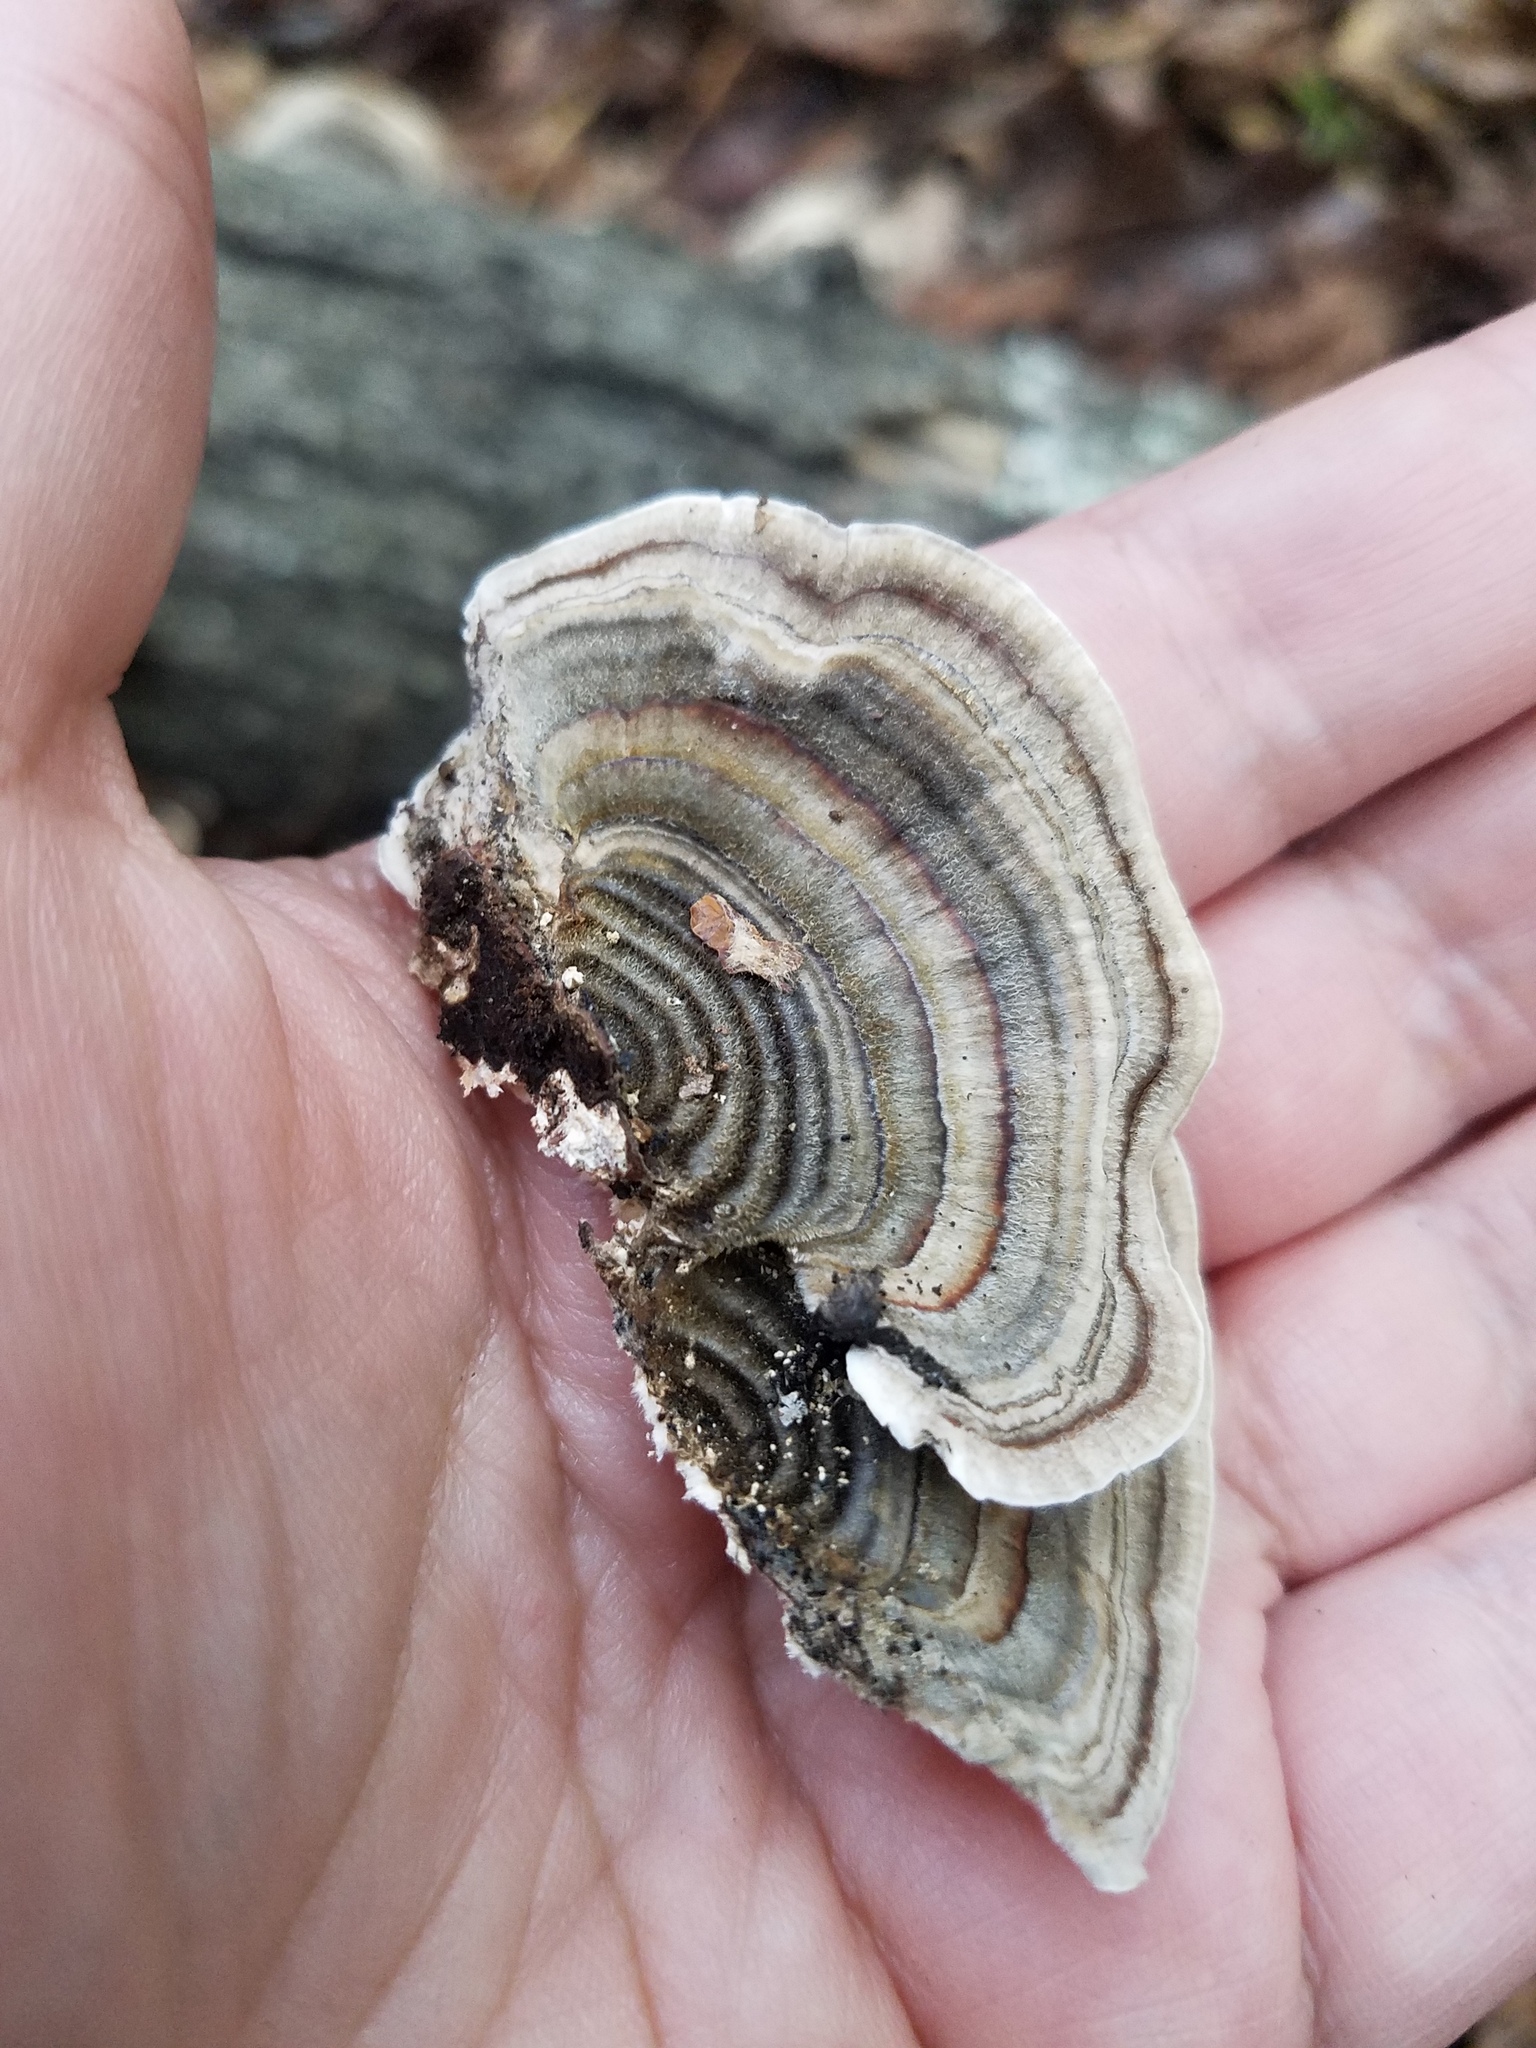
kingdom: Fungi
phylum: Basidiomycota
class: Agaricomycetes
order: Polyporales
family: Polyporaceae
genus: Trametes
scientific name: Trametes versicolor
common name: Turkeytail
